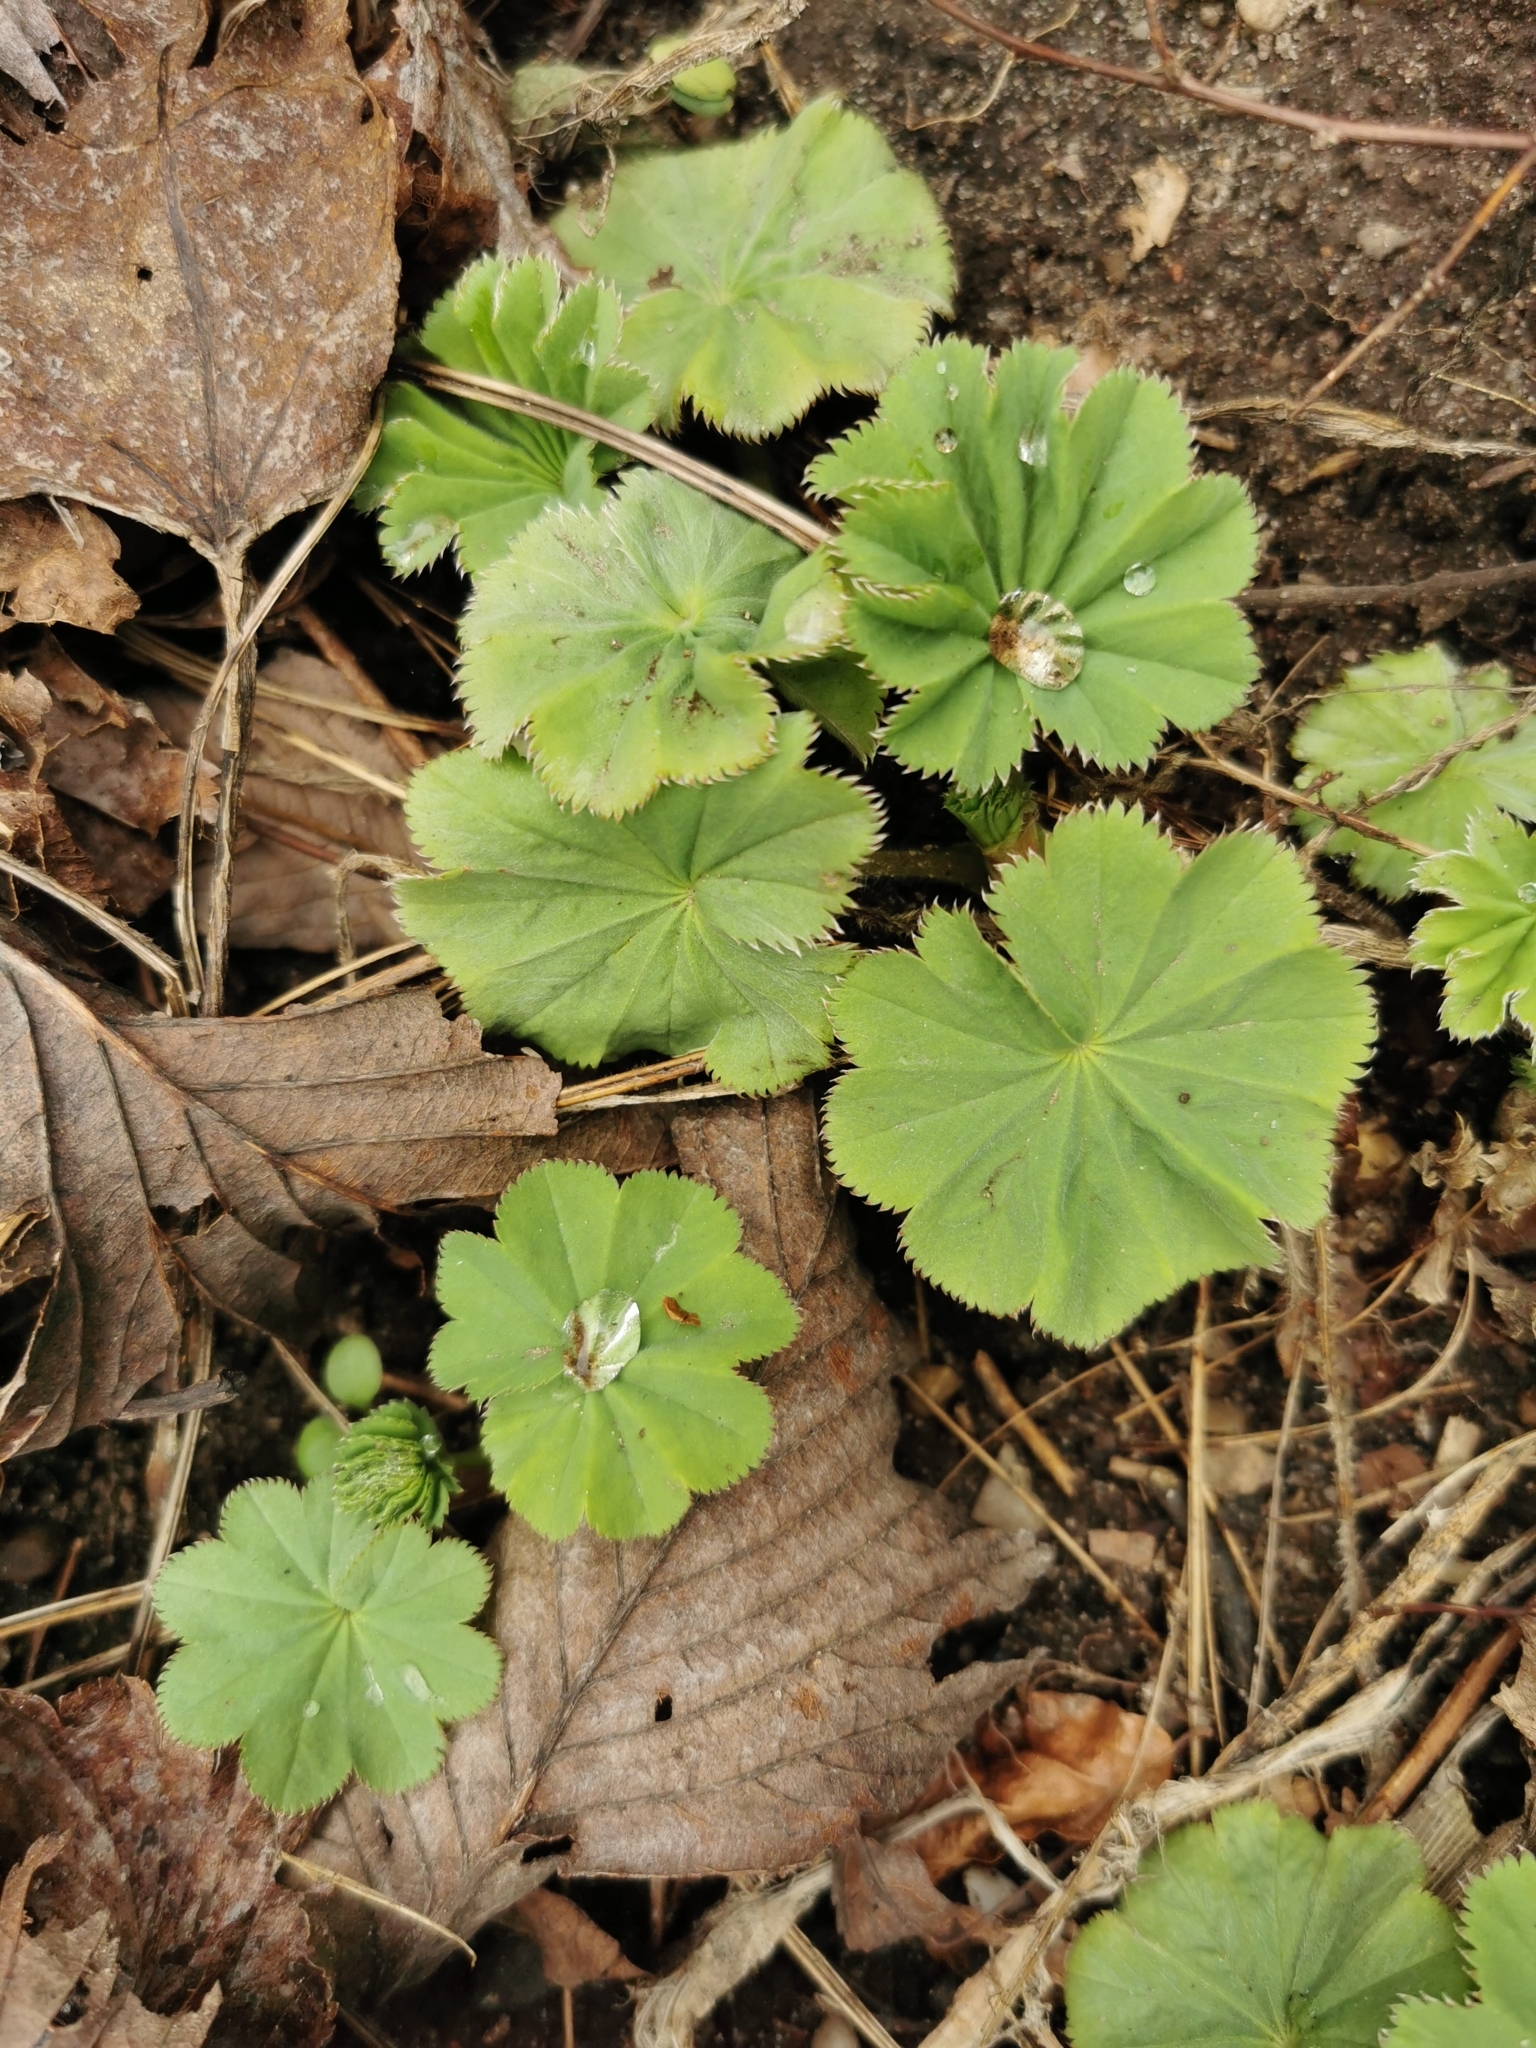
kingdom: Plantae
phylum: Tracheophyta
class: Magnoliopsida
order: Rosales
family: Rosaceae
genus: Alchemilla
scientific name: Alchemilla mollis
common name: Lady's-mantle
